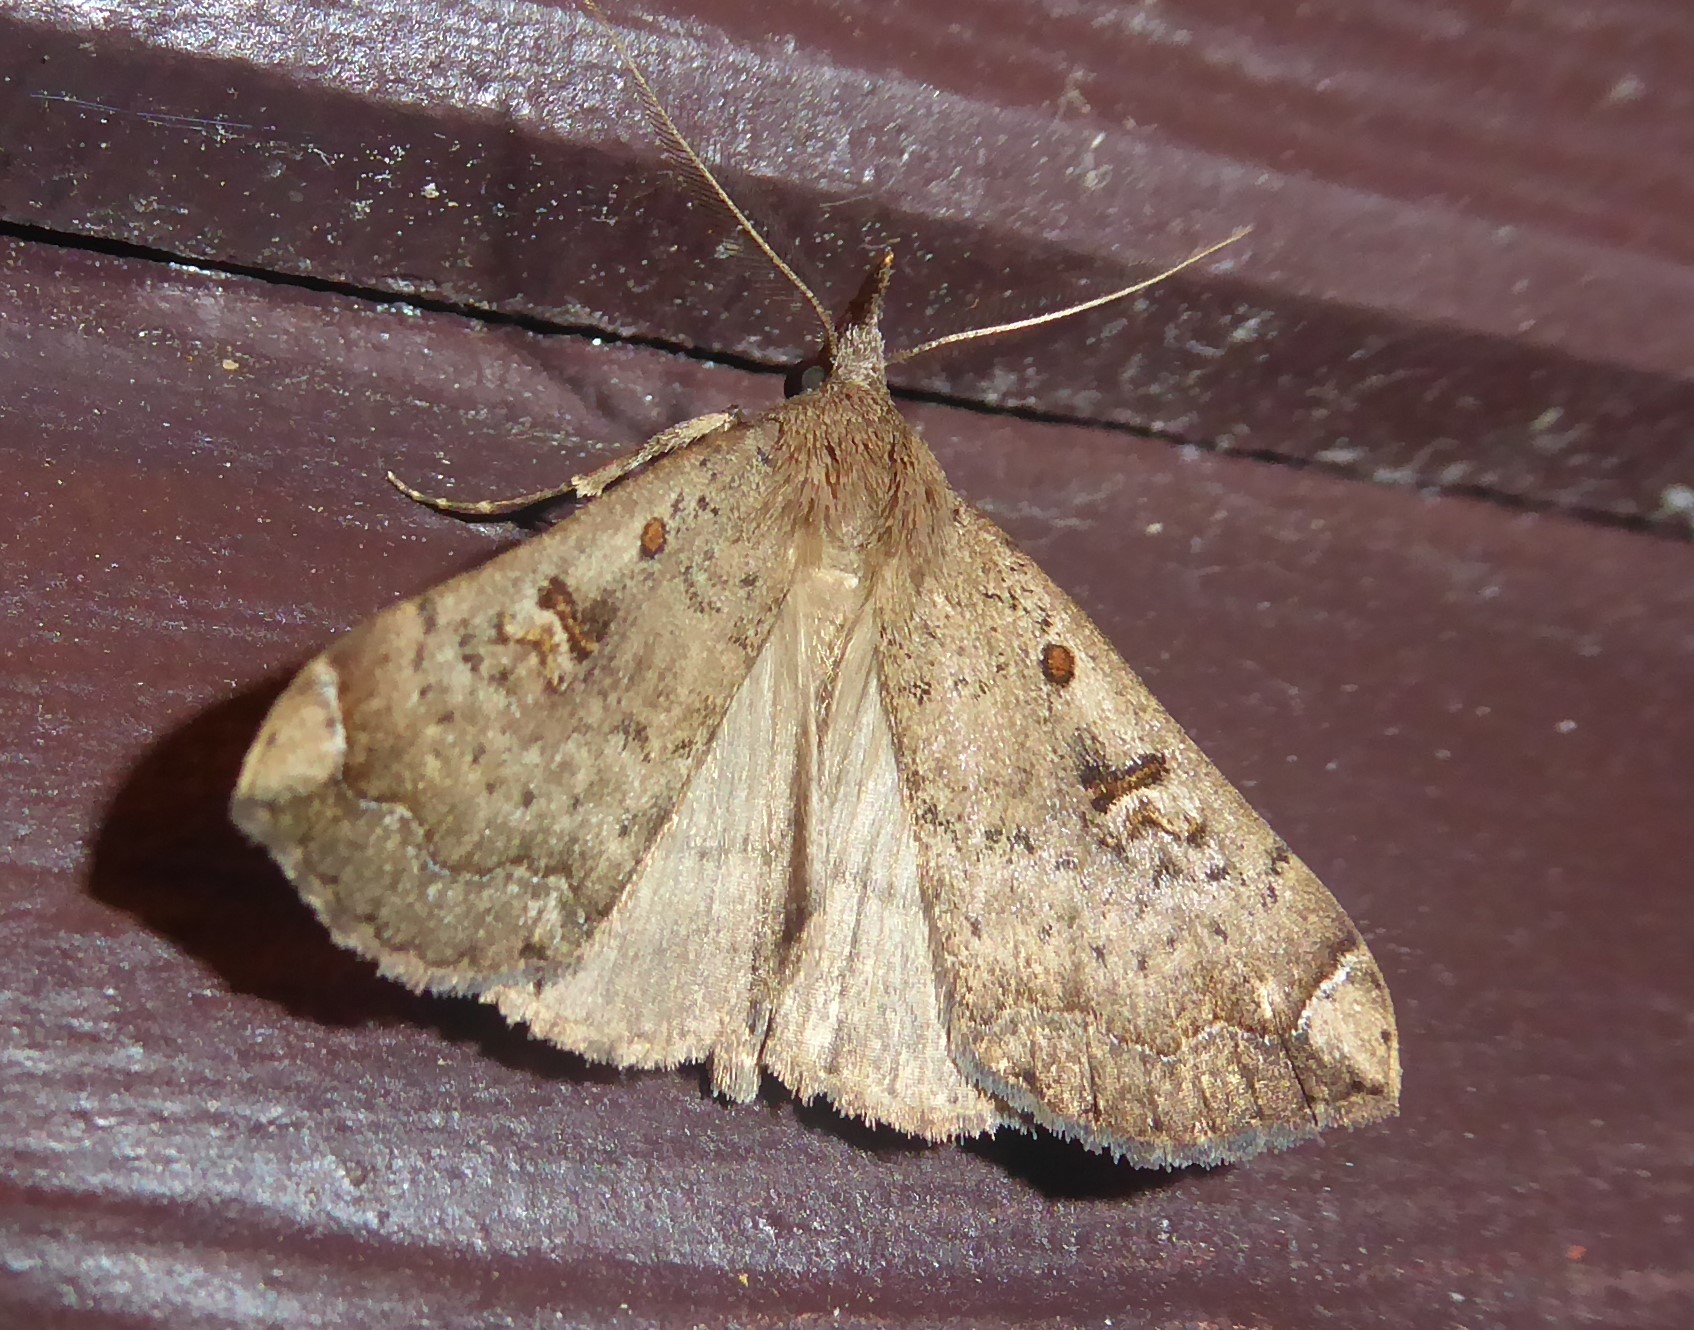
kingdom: Animalia
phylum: Arthropoda
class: Insecta
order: Lepidoptera
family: Erebidae
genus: Rhapsa
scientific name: Rhapsa scotosialis
